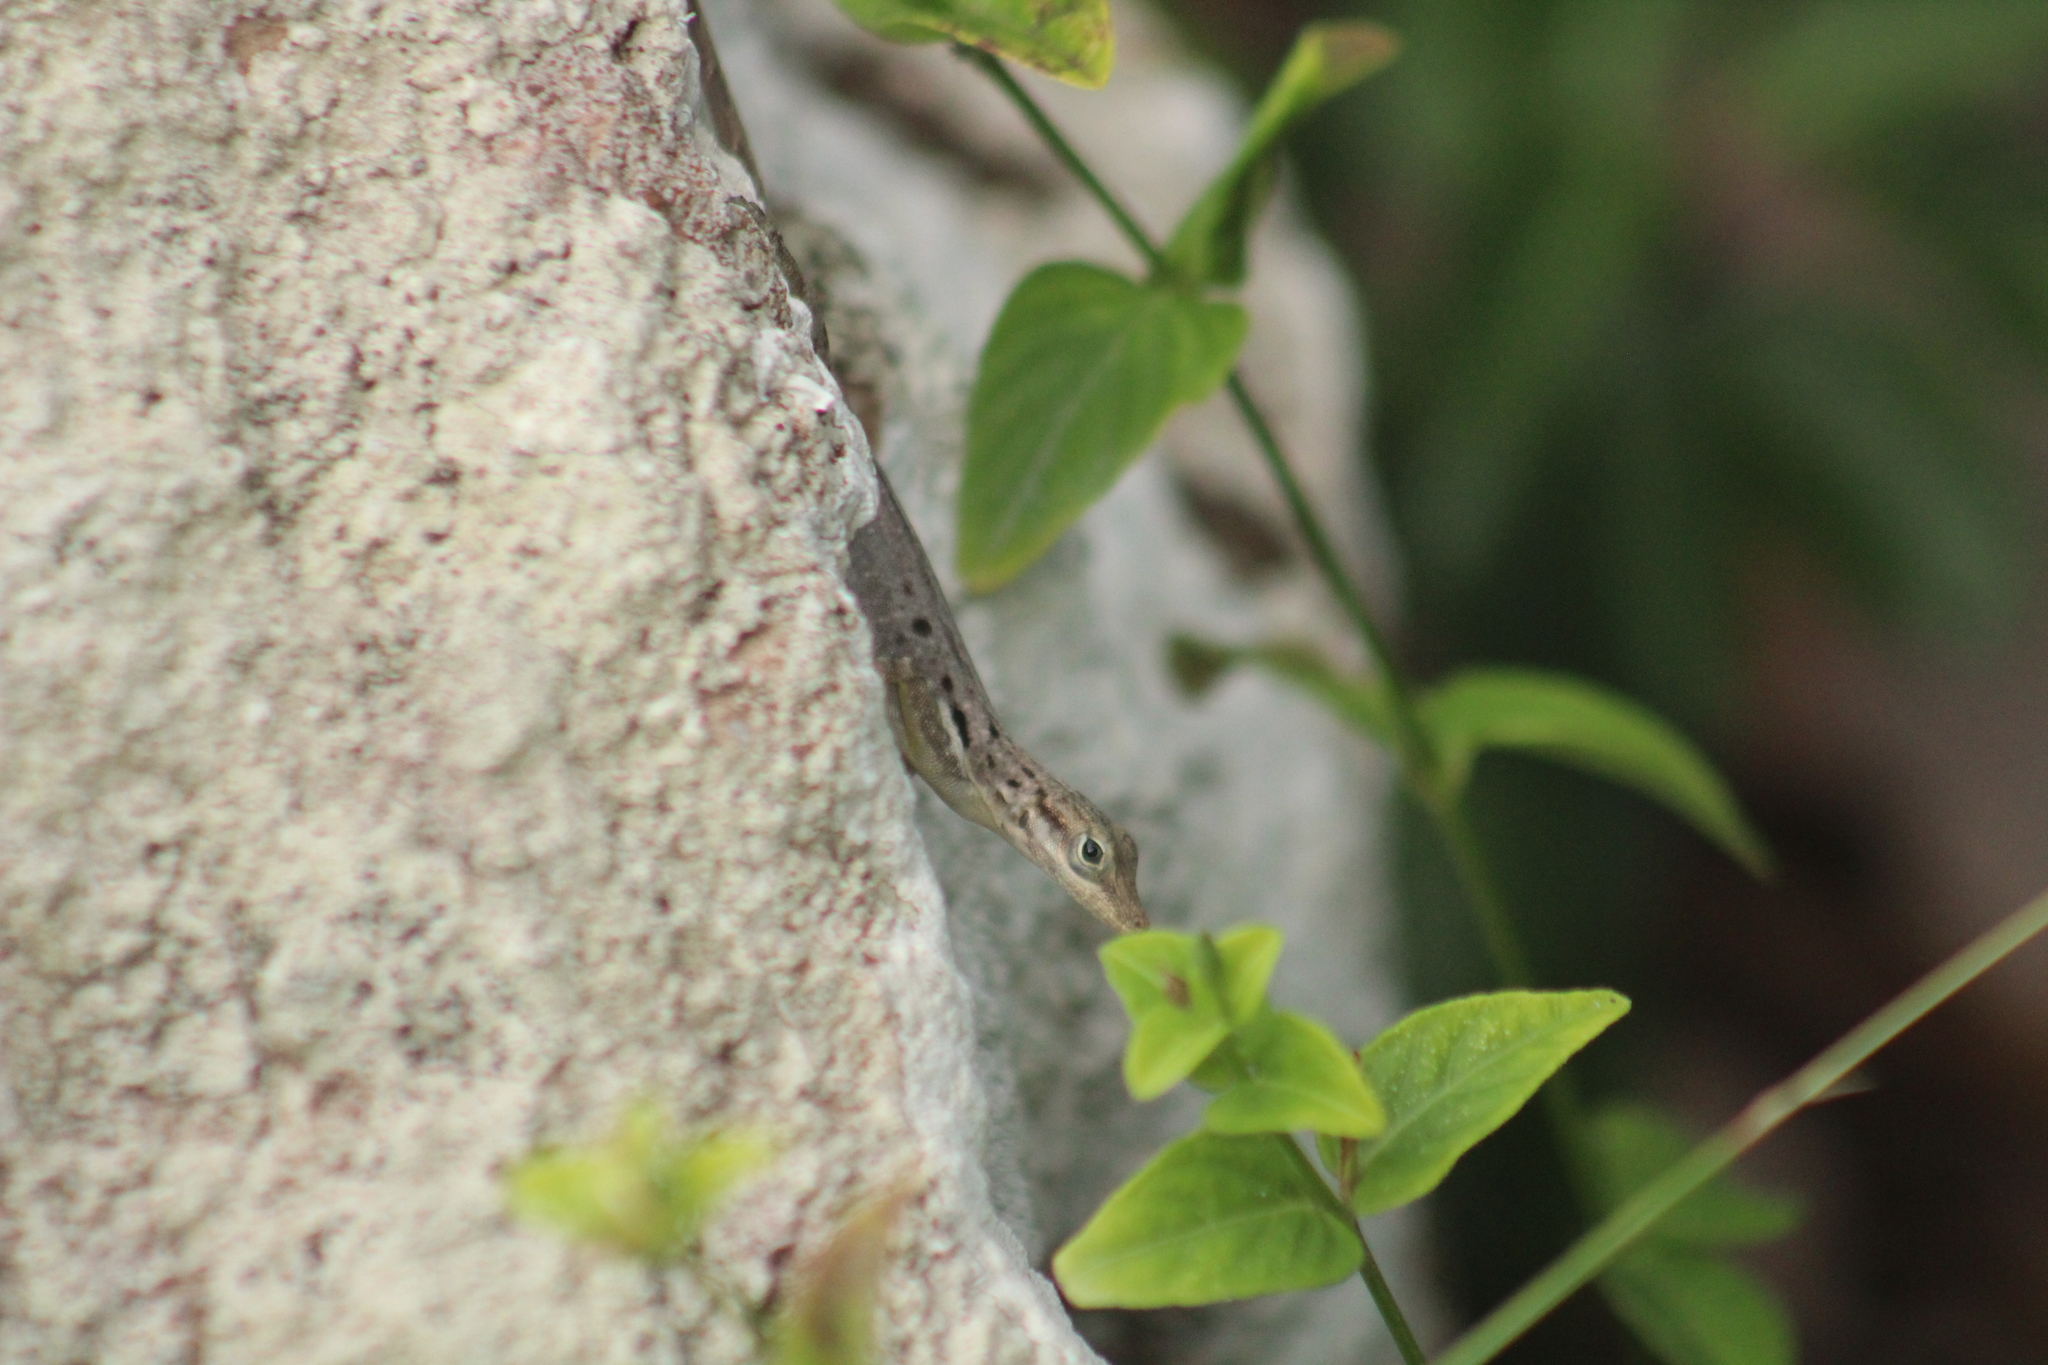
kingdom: Animalia
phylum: Chordata
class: Squamata
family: Dactyloidae
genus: Anolis
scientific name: Anolis sabanus
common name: Saba anole
